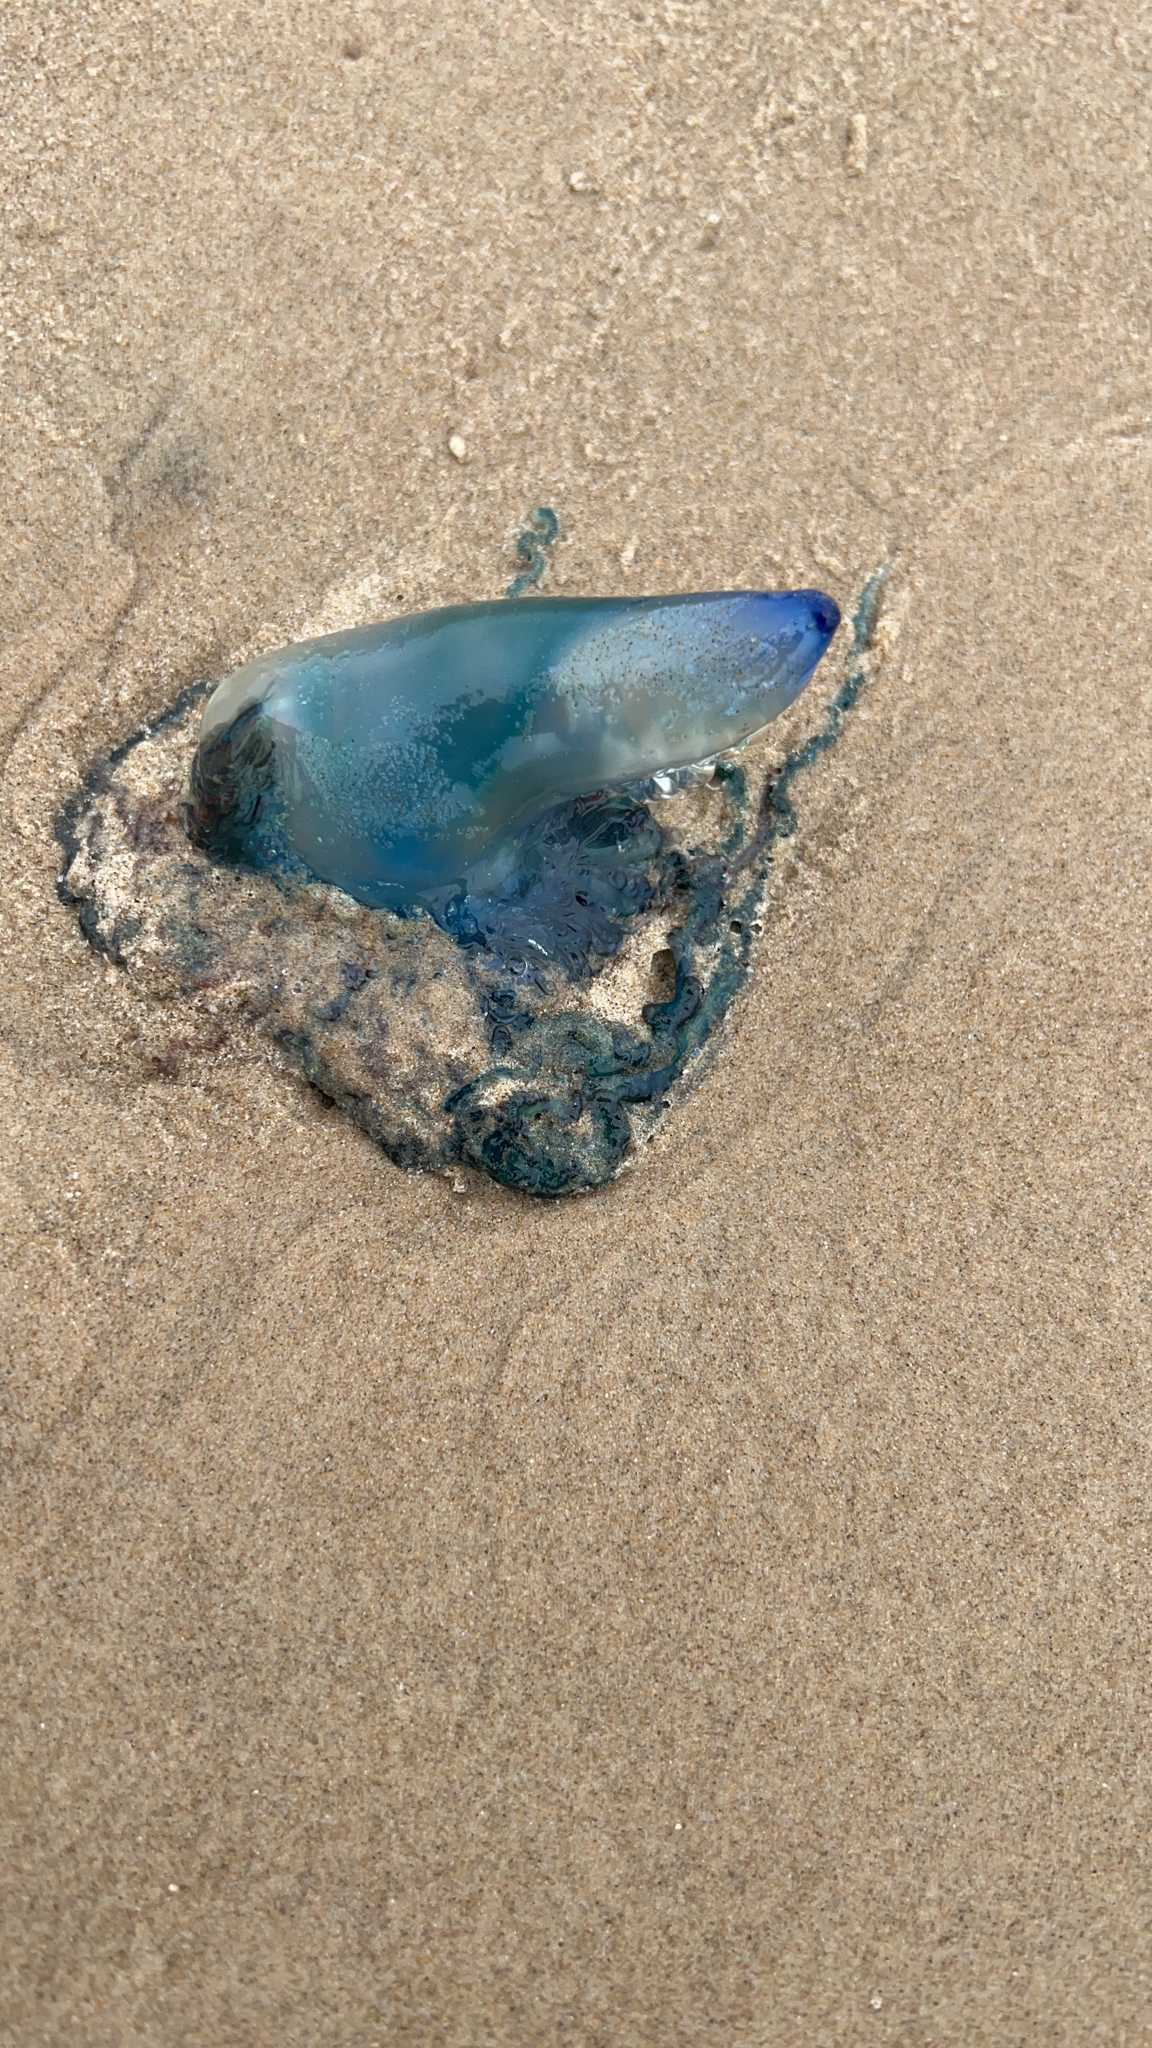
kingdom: Animalia
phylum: Cnidaria
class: Hydrozoa
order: Siphonophorae
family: Physaliidae
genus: Physalia
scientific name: Physalia physalis
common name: Portuguese man-of-war
